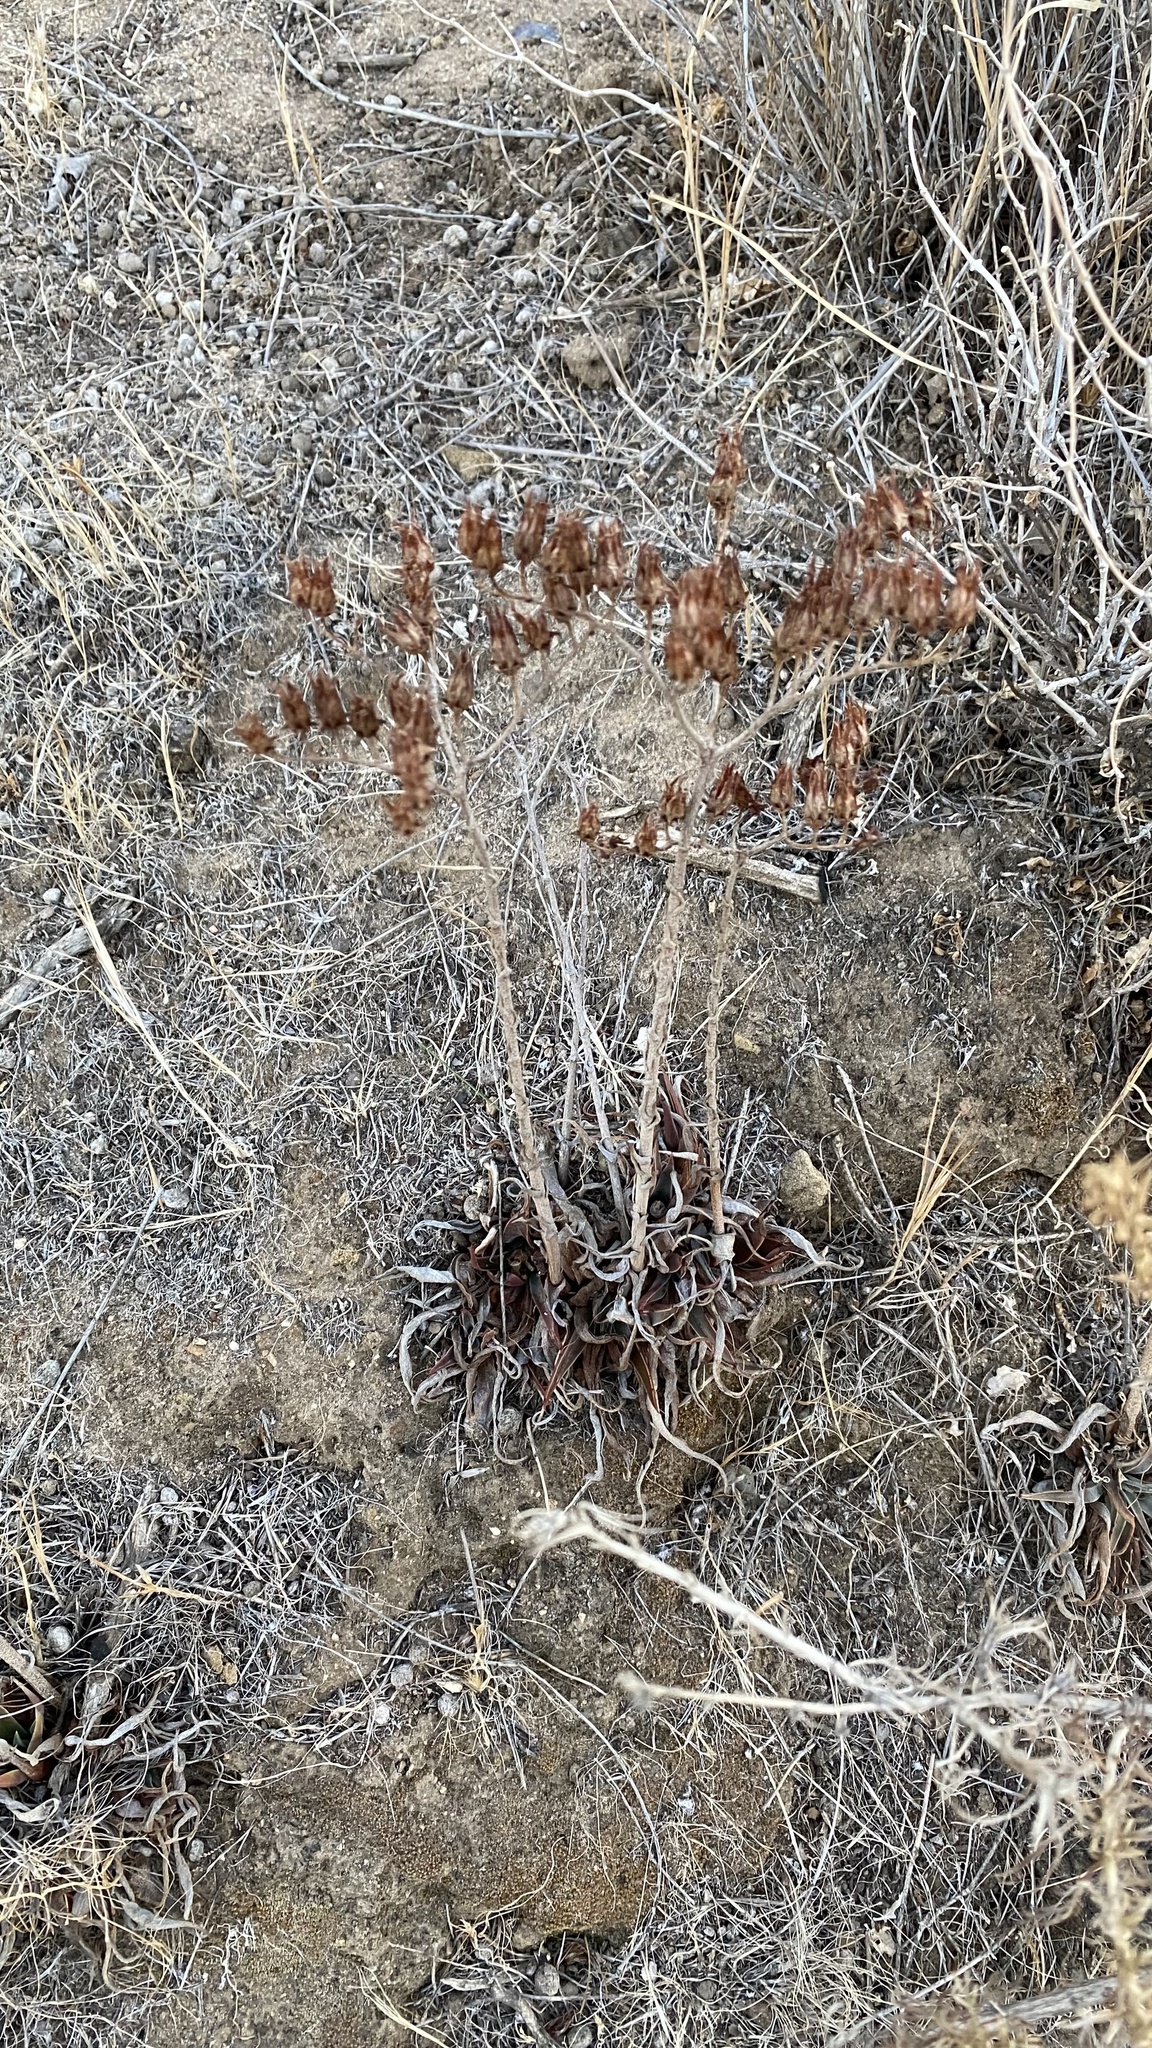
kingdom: Plantae
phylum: Tracheophyta
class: Magnoliopsida
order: Saxifragales
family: Crassulaceae
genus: Dudleya
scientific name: Dudleya lanceolata
